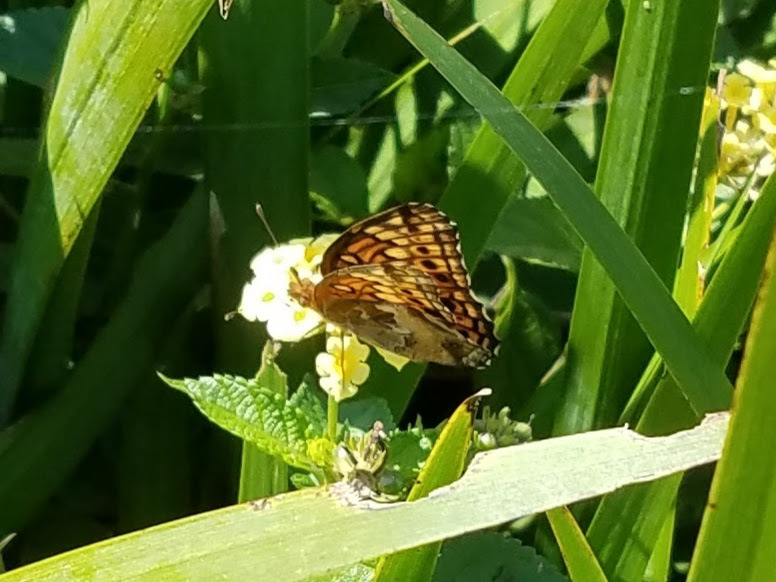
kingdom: Animalia
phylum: Arthropoda
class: Insecta
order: Lepidoptera
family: Nymphalidae
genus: Euptoieta
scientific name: Euptoieta claudia
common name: Variegated fritillary
